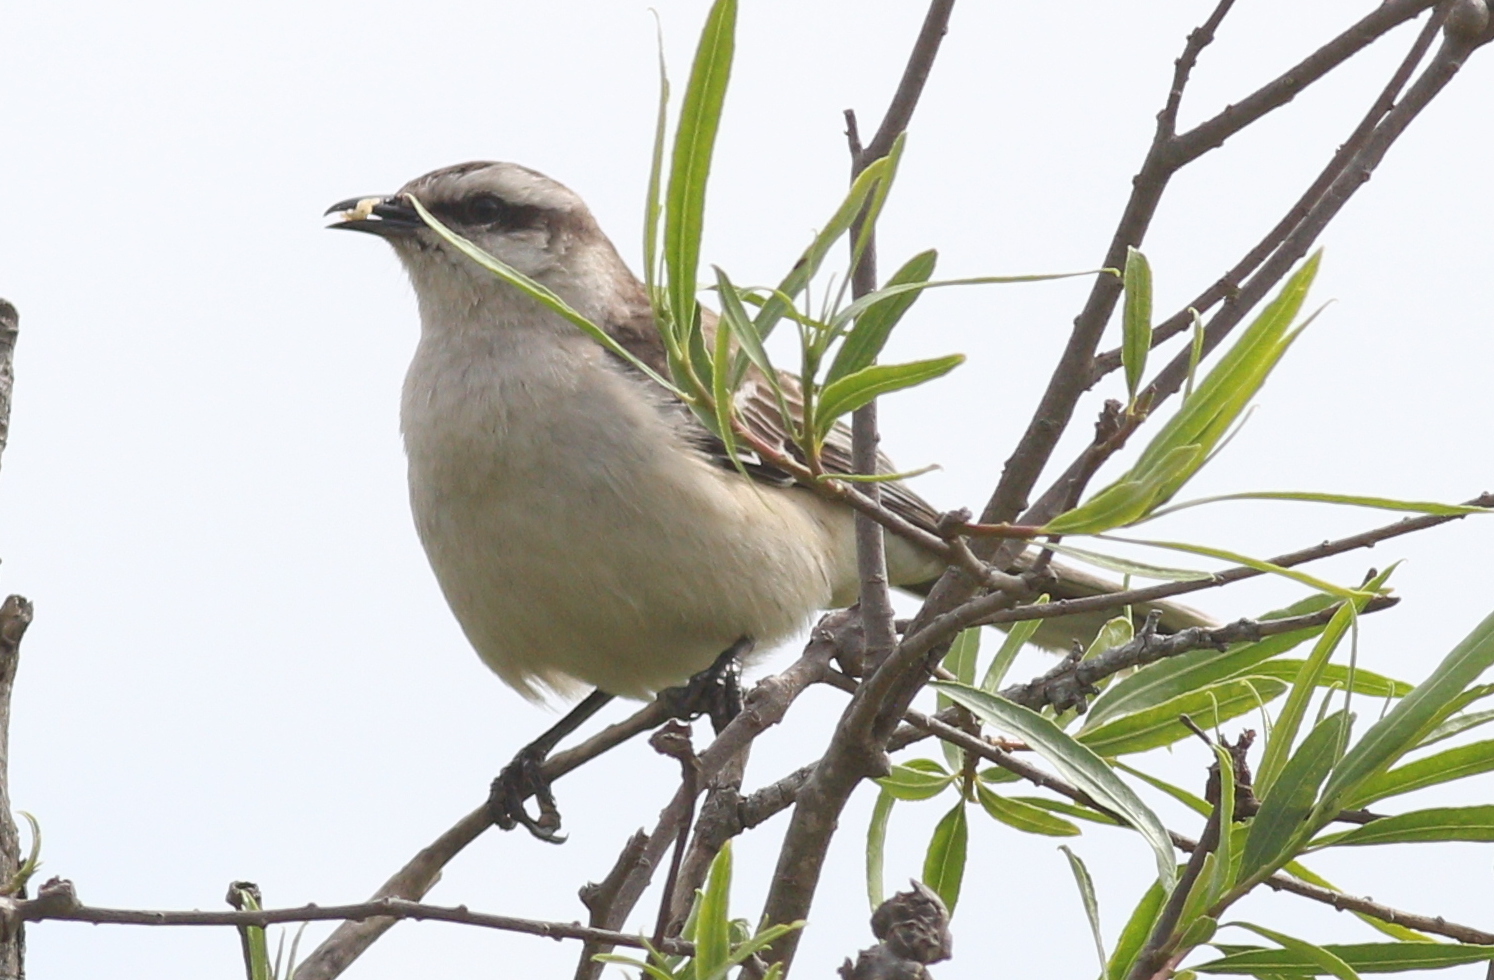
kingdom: Animalia
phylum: Chordata
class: Aves
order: Passeriformes
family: Mimidae
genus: Mimus
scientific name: Mimus saturninus
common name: Chalk-browed mockingbird
